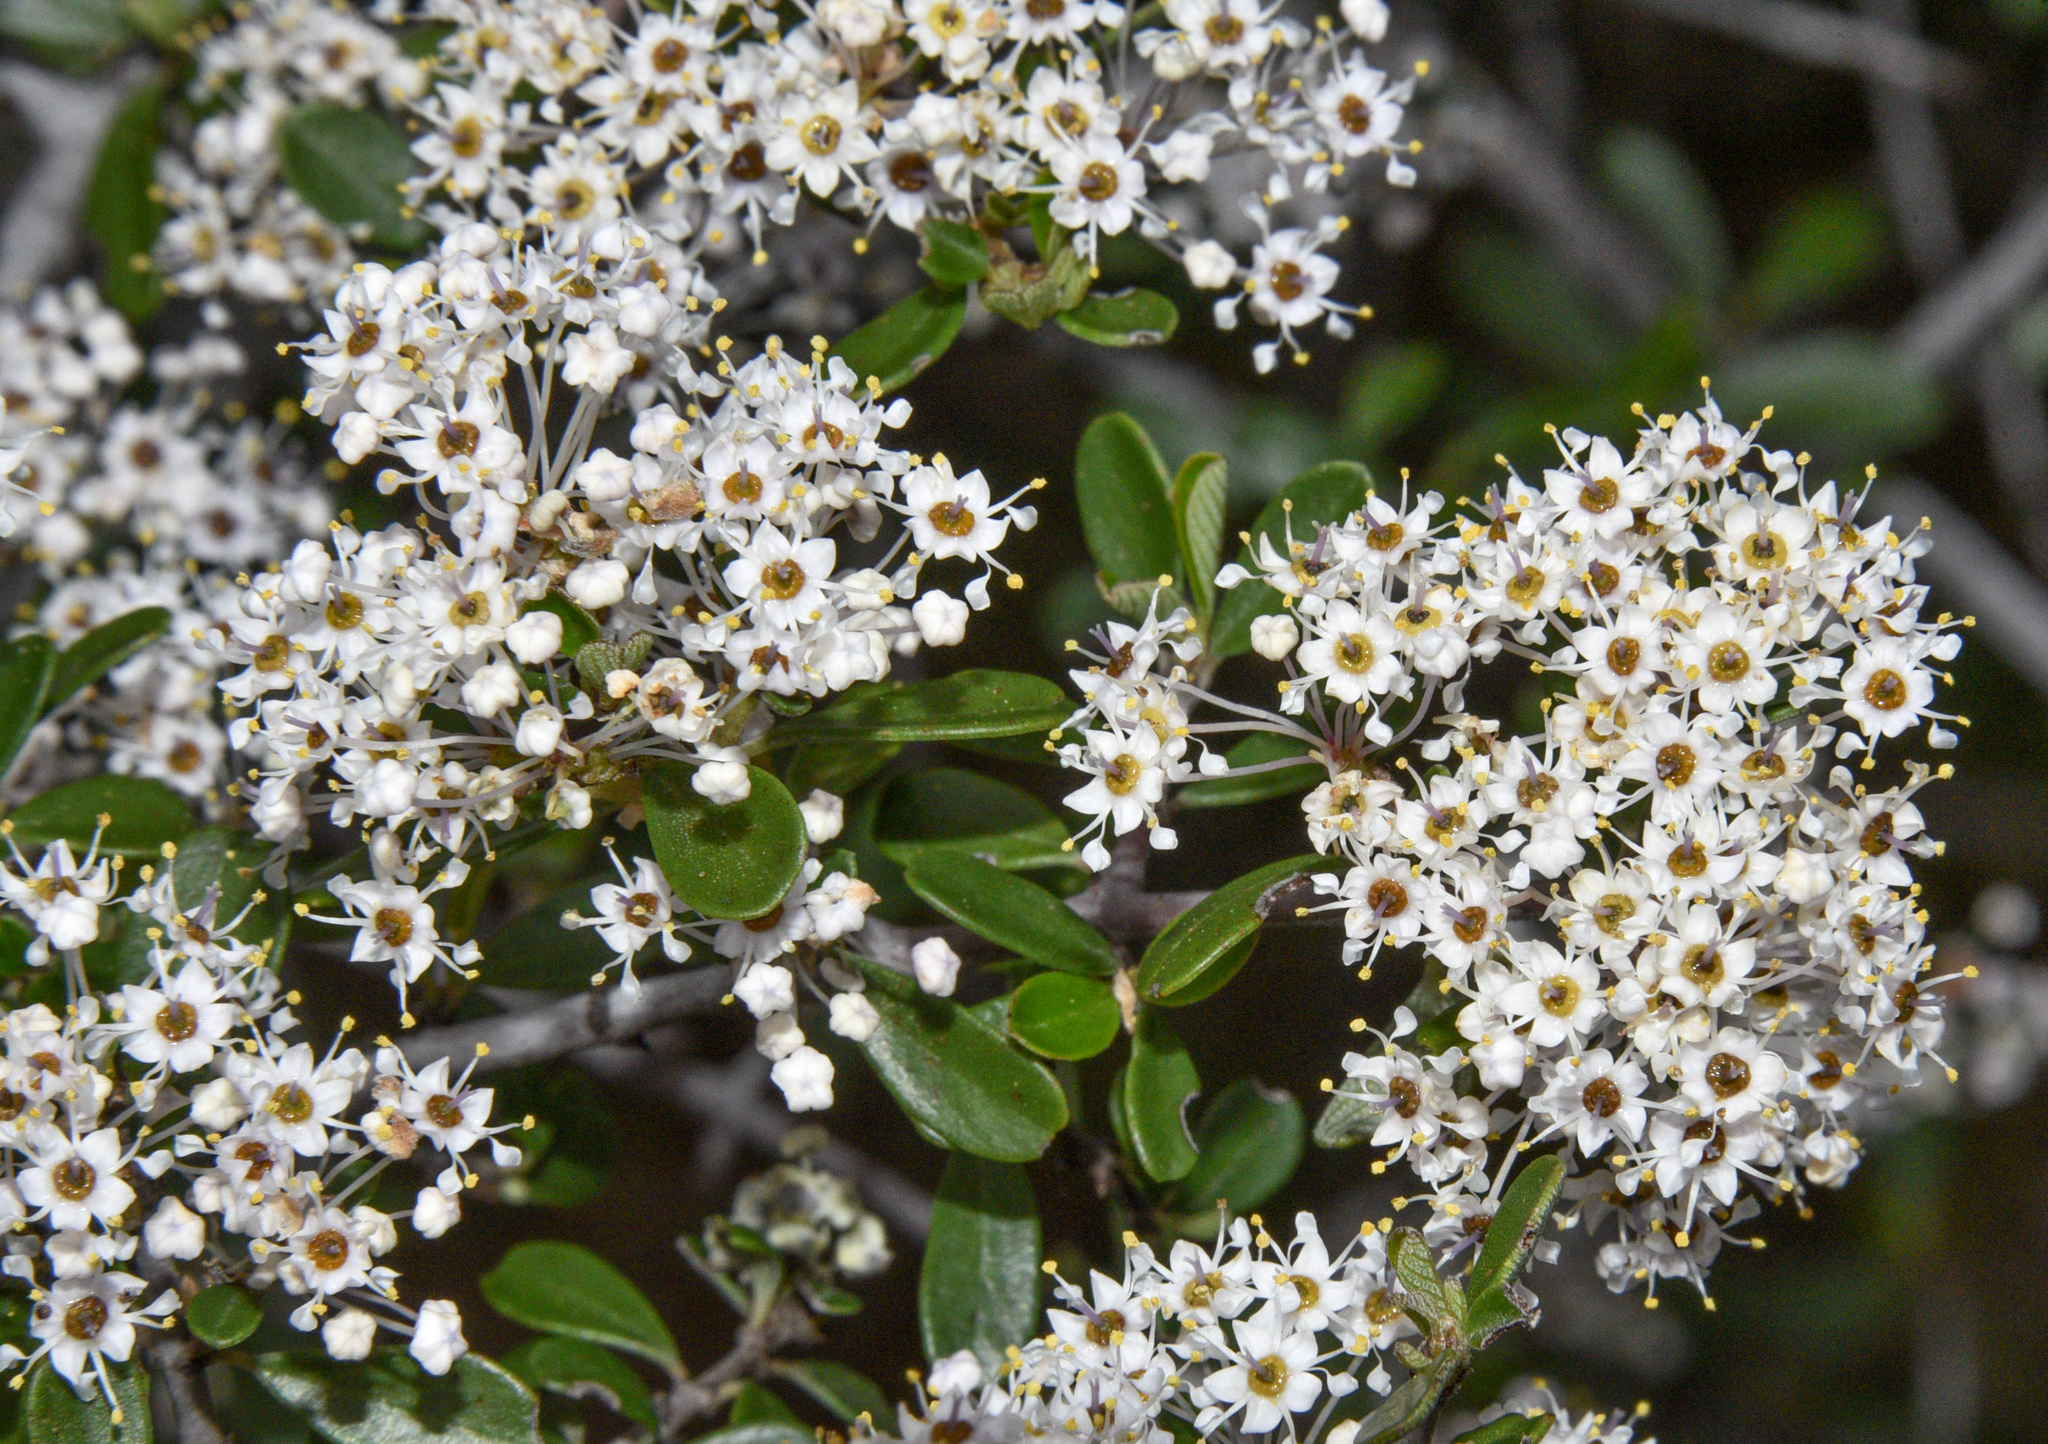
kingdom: Plantae
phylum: Tracheophyta
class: Magnoliopsida
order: Rosales
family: Rhamnaceae
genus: Ceanothus
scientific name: Ceanothus cuneatus
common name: Cuneate ceanothus
